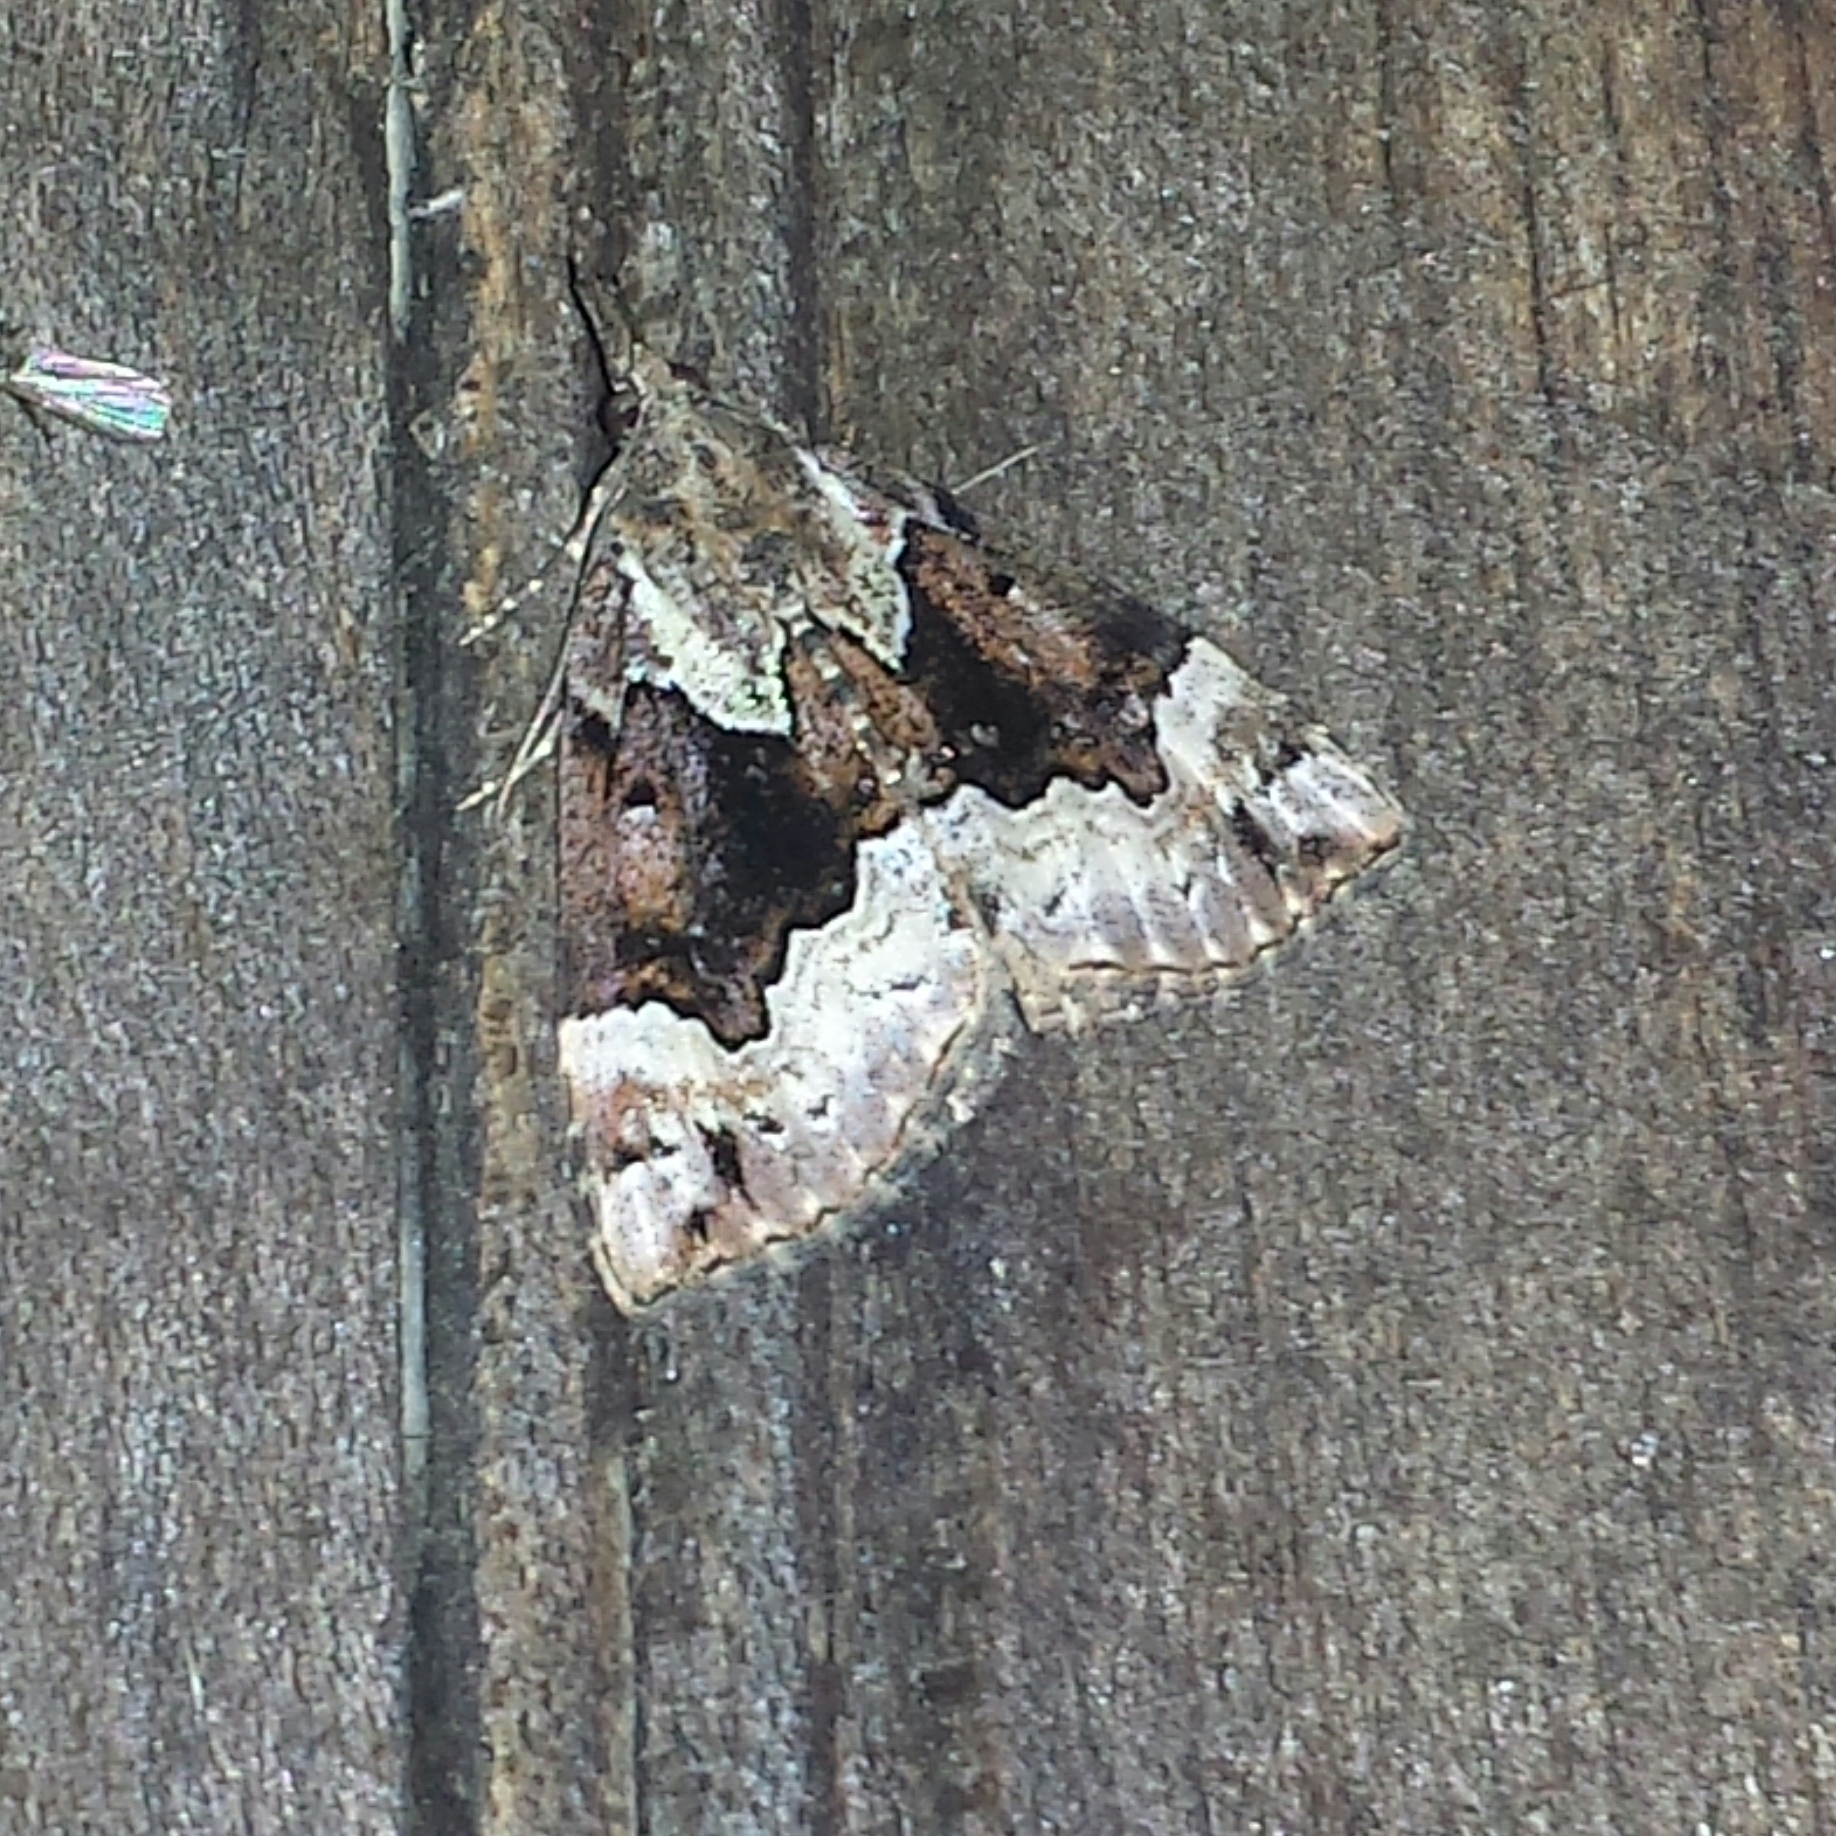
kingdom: Animalia
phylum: Arthropoda
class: Insecta
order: Lepidoptera
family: Erebidae
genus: Hypena
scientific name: Hypena palparia
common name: Mottled bomolocha moth
